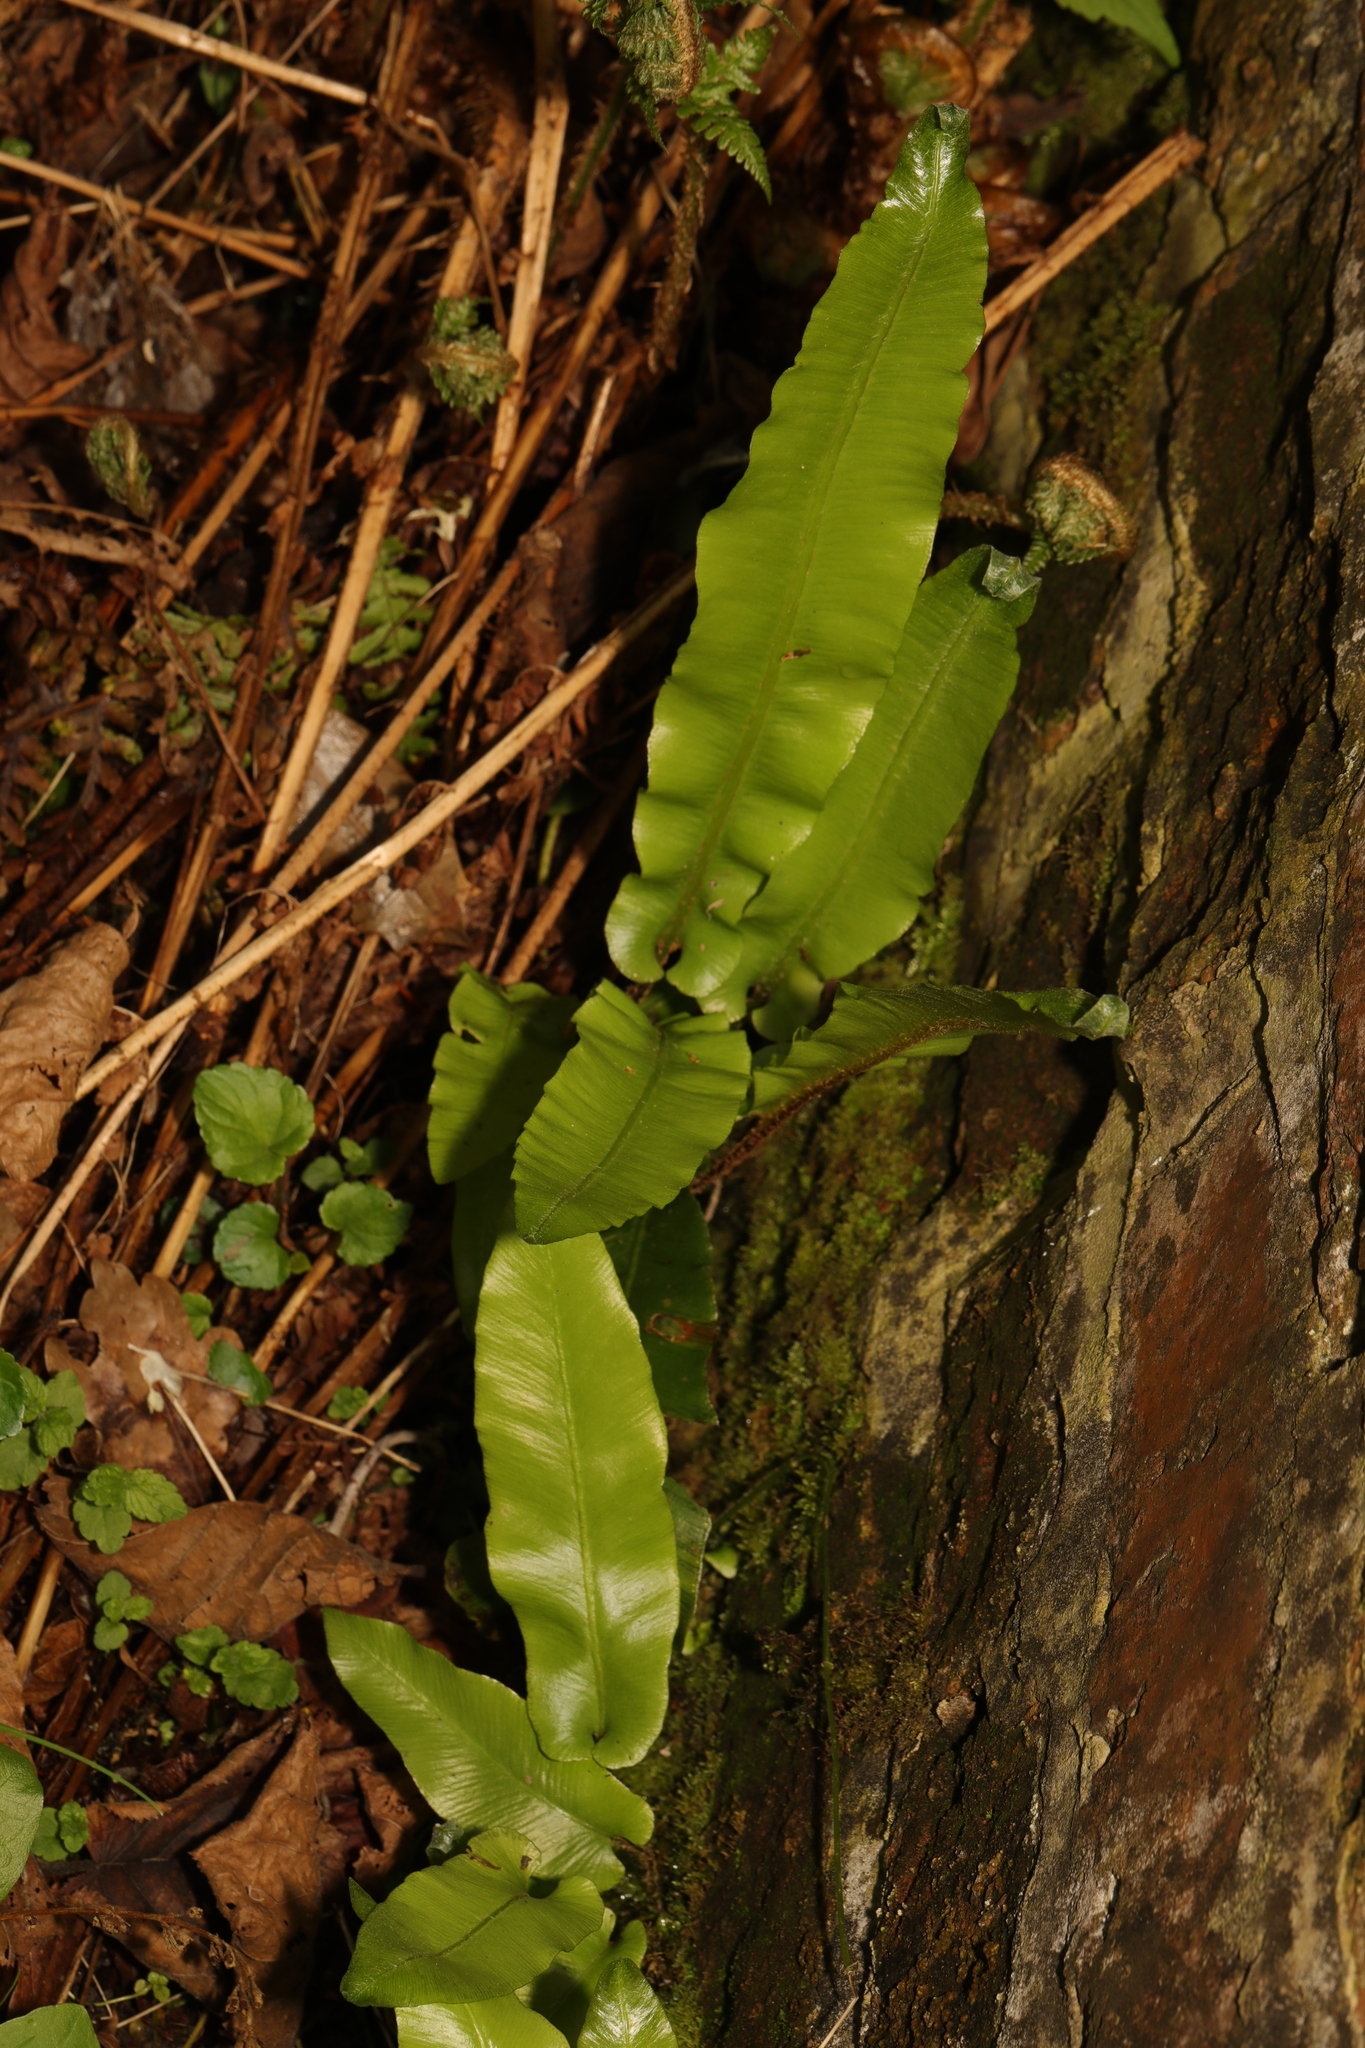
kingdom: Plantae
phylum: Tracheophyta
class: Polypodiopsida
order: Polypodiales
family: Aspleniaceae
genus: Asplenium
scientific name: Asplenium scolopendrium
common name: Hart's-tongue fern
